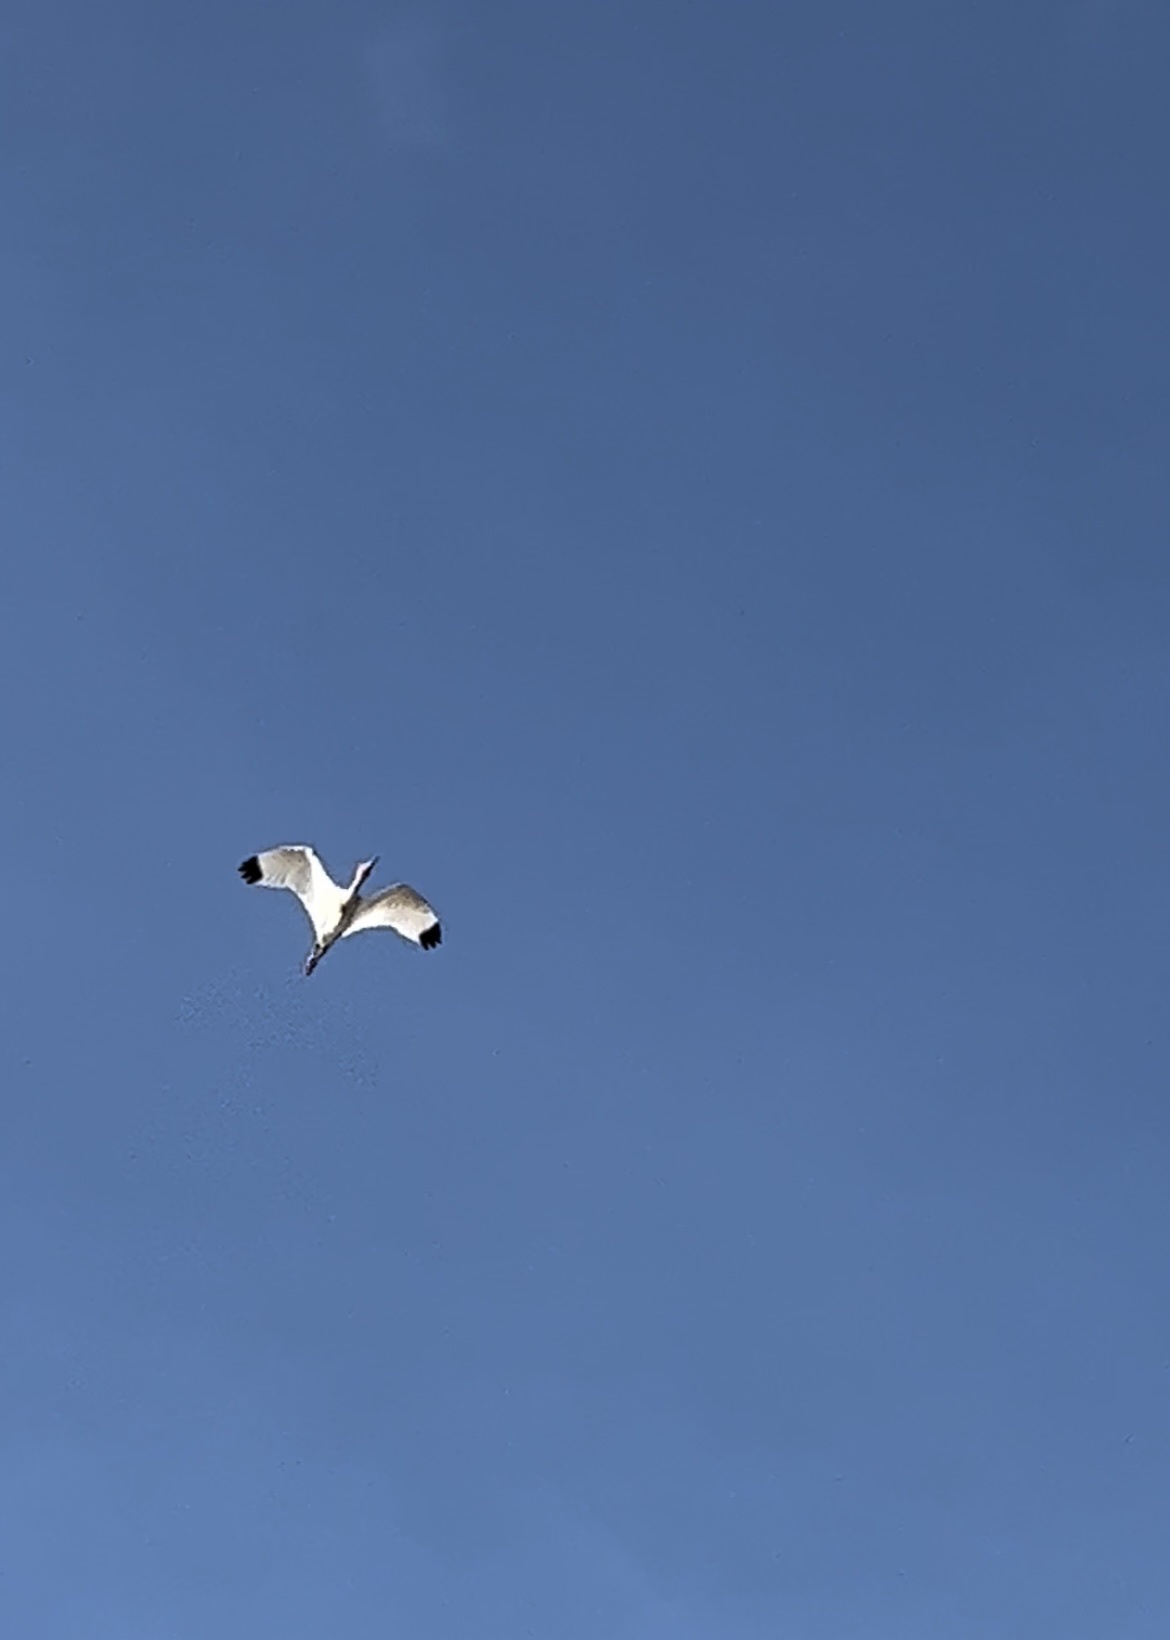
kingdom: Animalia
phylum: Chordata
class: Aves
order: Pelecaniformes
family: Threskiornithidae
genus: Eudocimus
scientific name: Eudocimus albus
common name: White ibis
